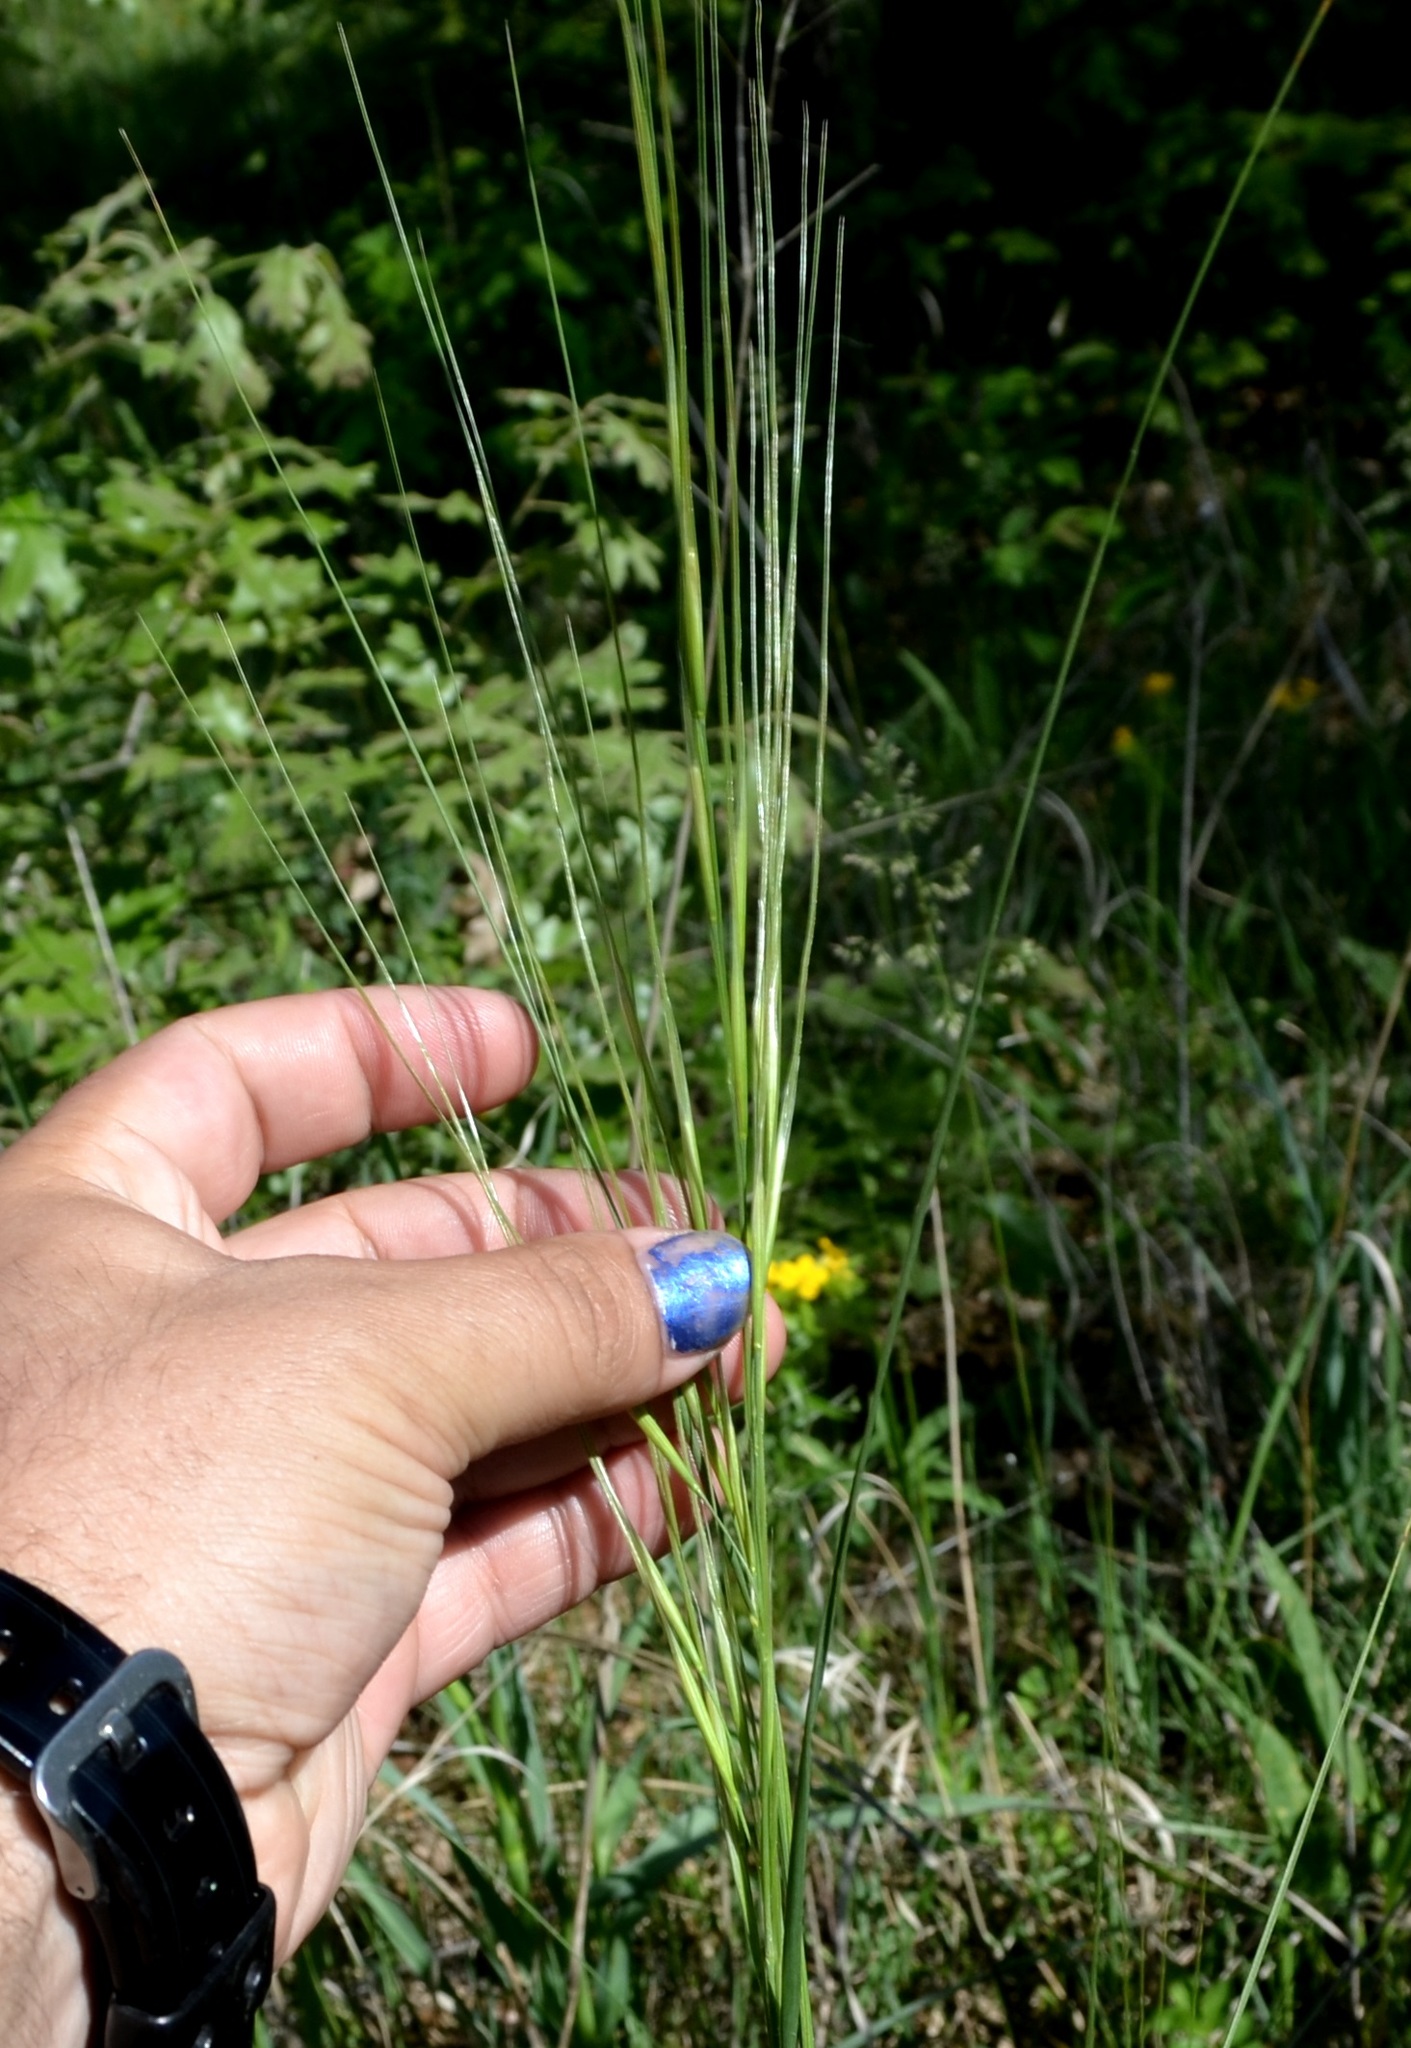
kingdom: Plantae
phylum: Tracheophyta
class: Liliopsida
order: Poales
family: Poaceae
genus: Hesperostipa
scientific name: Hesperostipa spartea
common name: Porcupine grass
